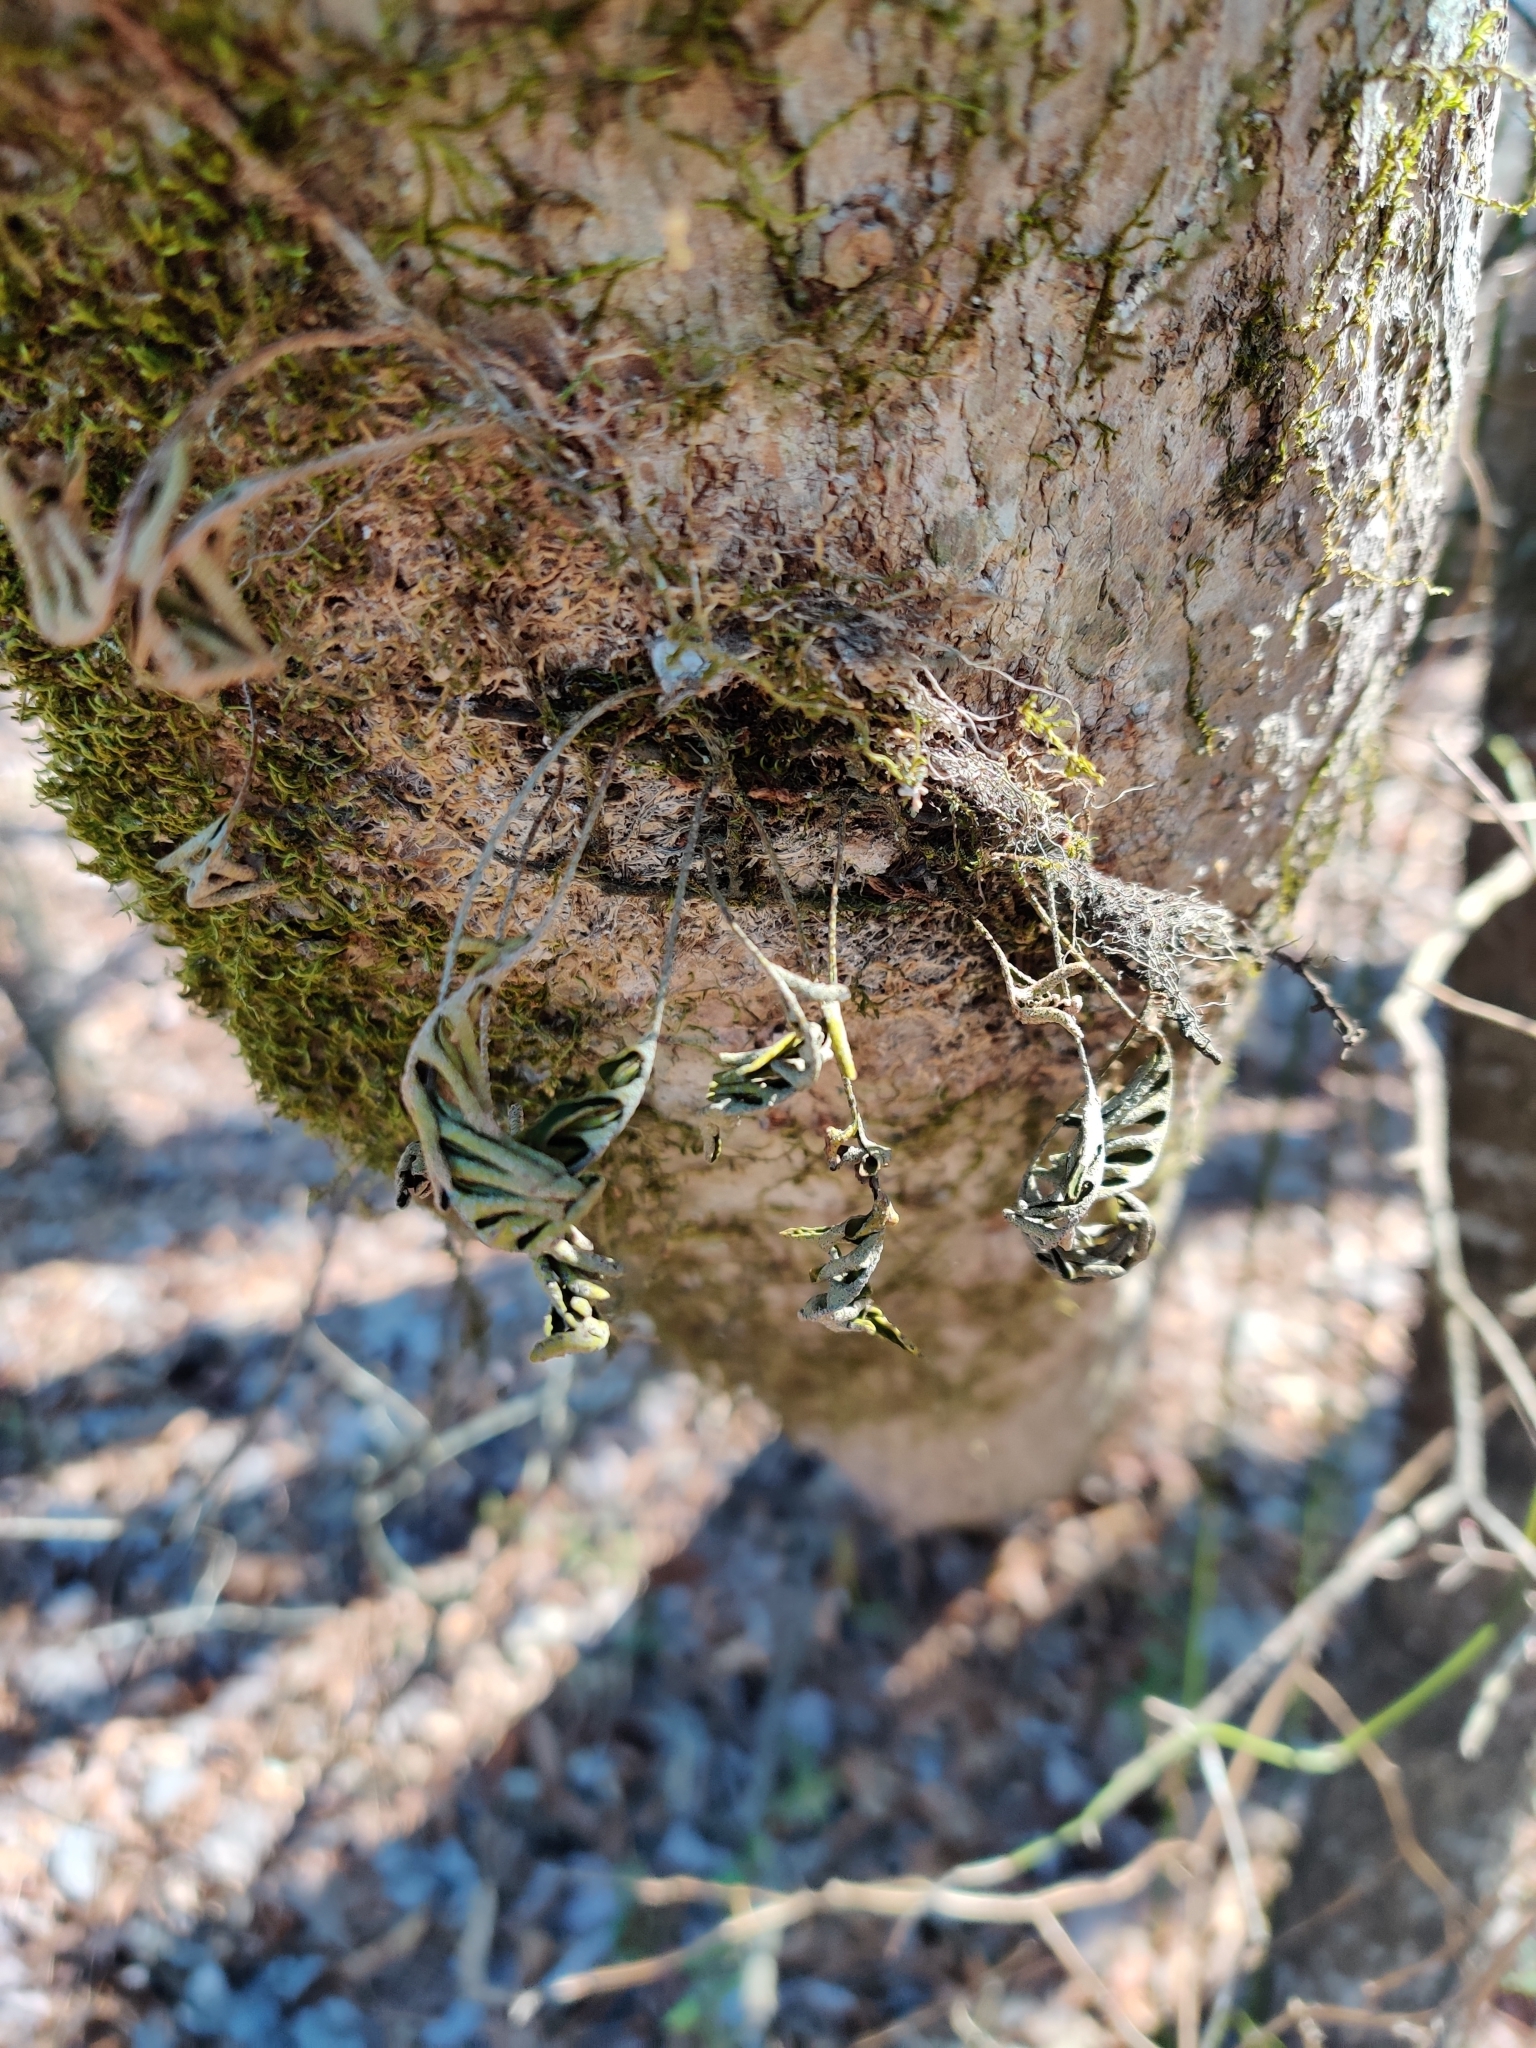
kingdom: Plantae
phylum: Tracheophyta
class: Polypodiopsida
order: Polypodiales
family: Polypodiaceae
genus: Pleopeltis
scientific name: Pleopeltis michauxiana
